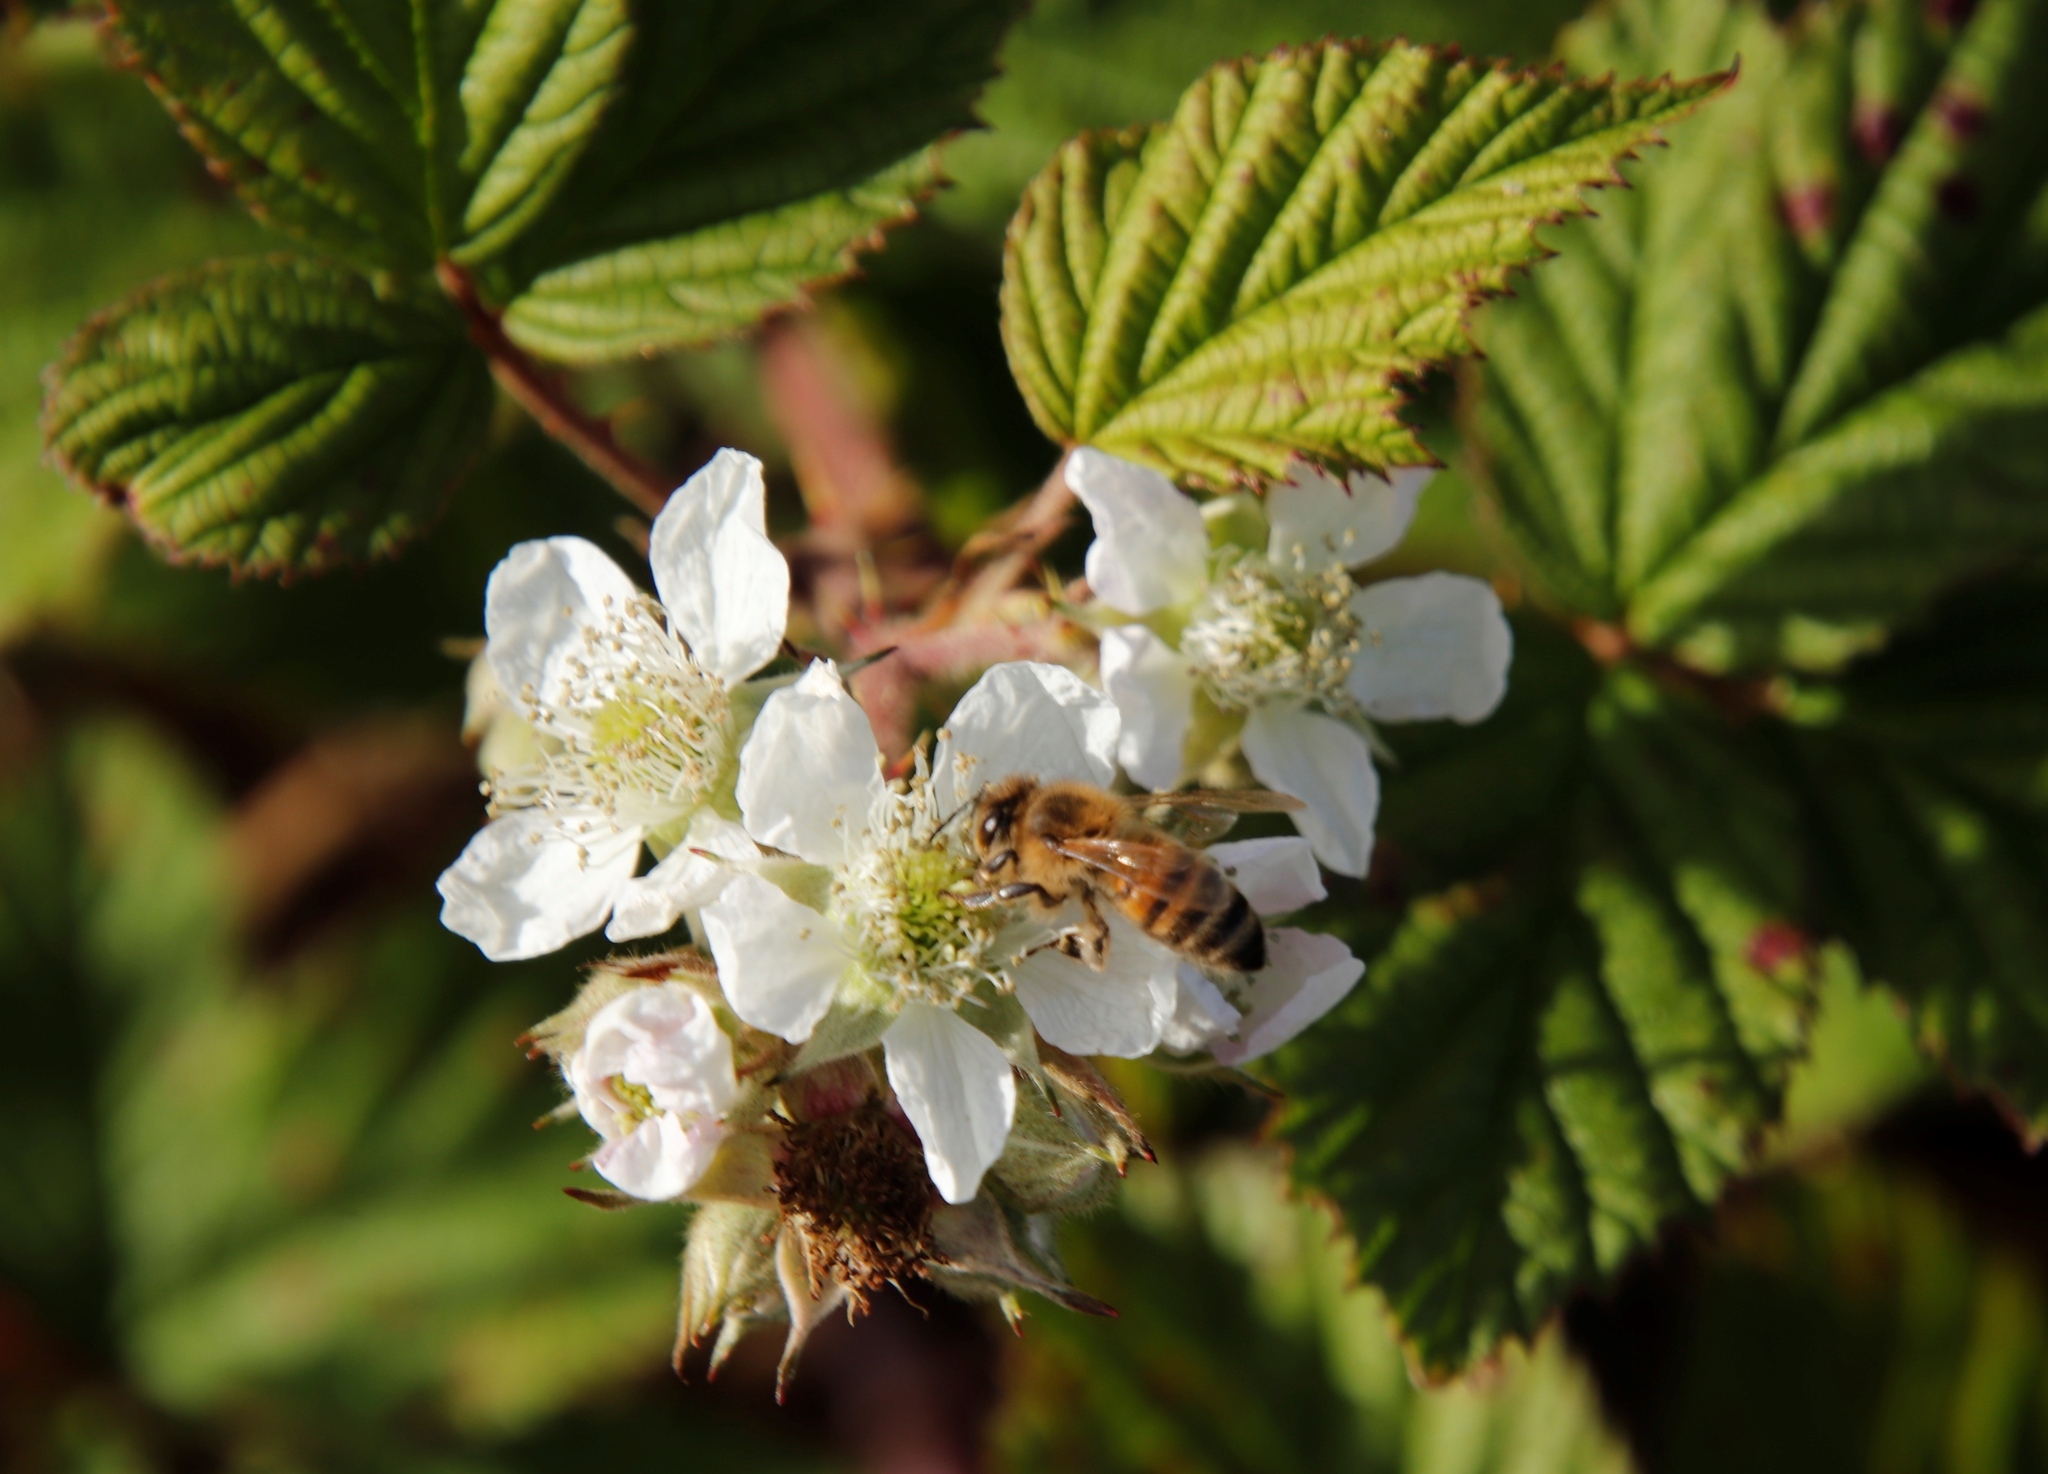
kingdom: Animalia
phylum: Arthropoda
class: Insecta
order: Hymenoptera
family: Apidae
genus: Apis
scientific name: Apis mellifera
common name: Honey bee
